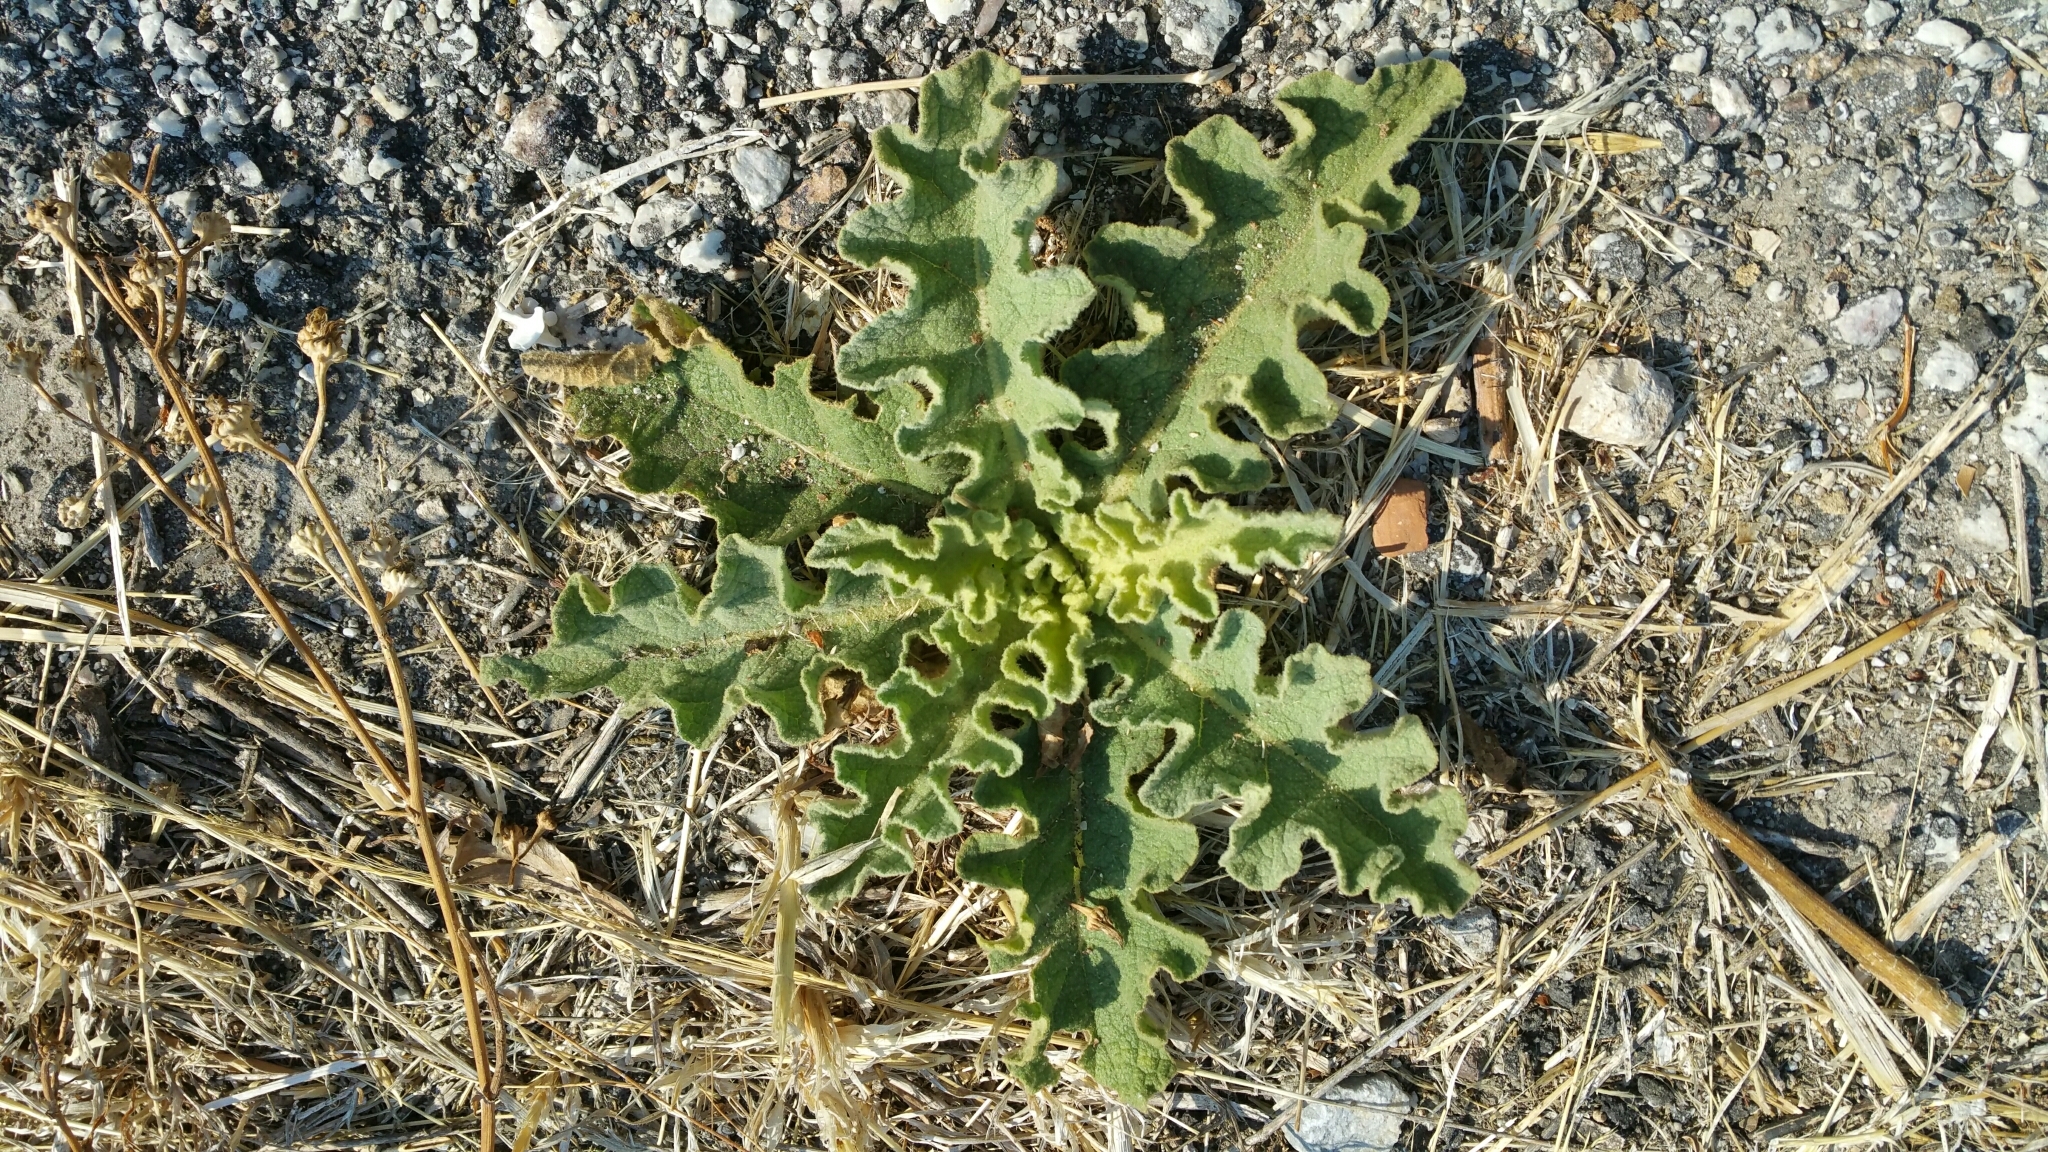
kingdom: Plantae
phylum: Tracheophyta
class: Magnoliopsida
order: Lamiales
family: Scrophulariaceae
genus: Verbascum
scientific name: Verbascum sinuatum
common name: Wavyleaf mullein
